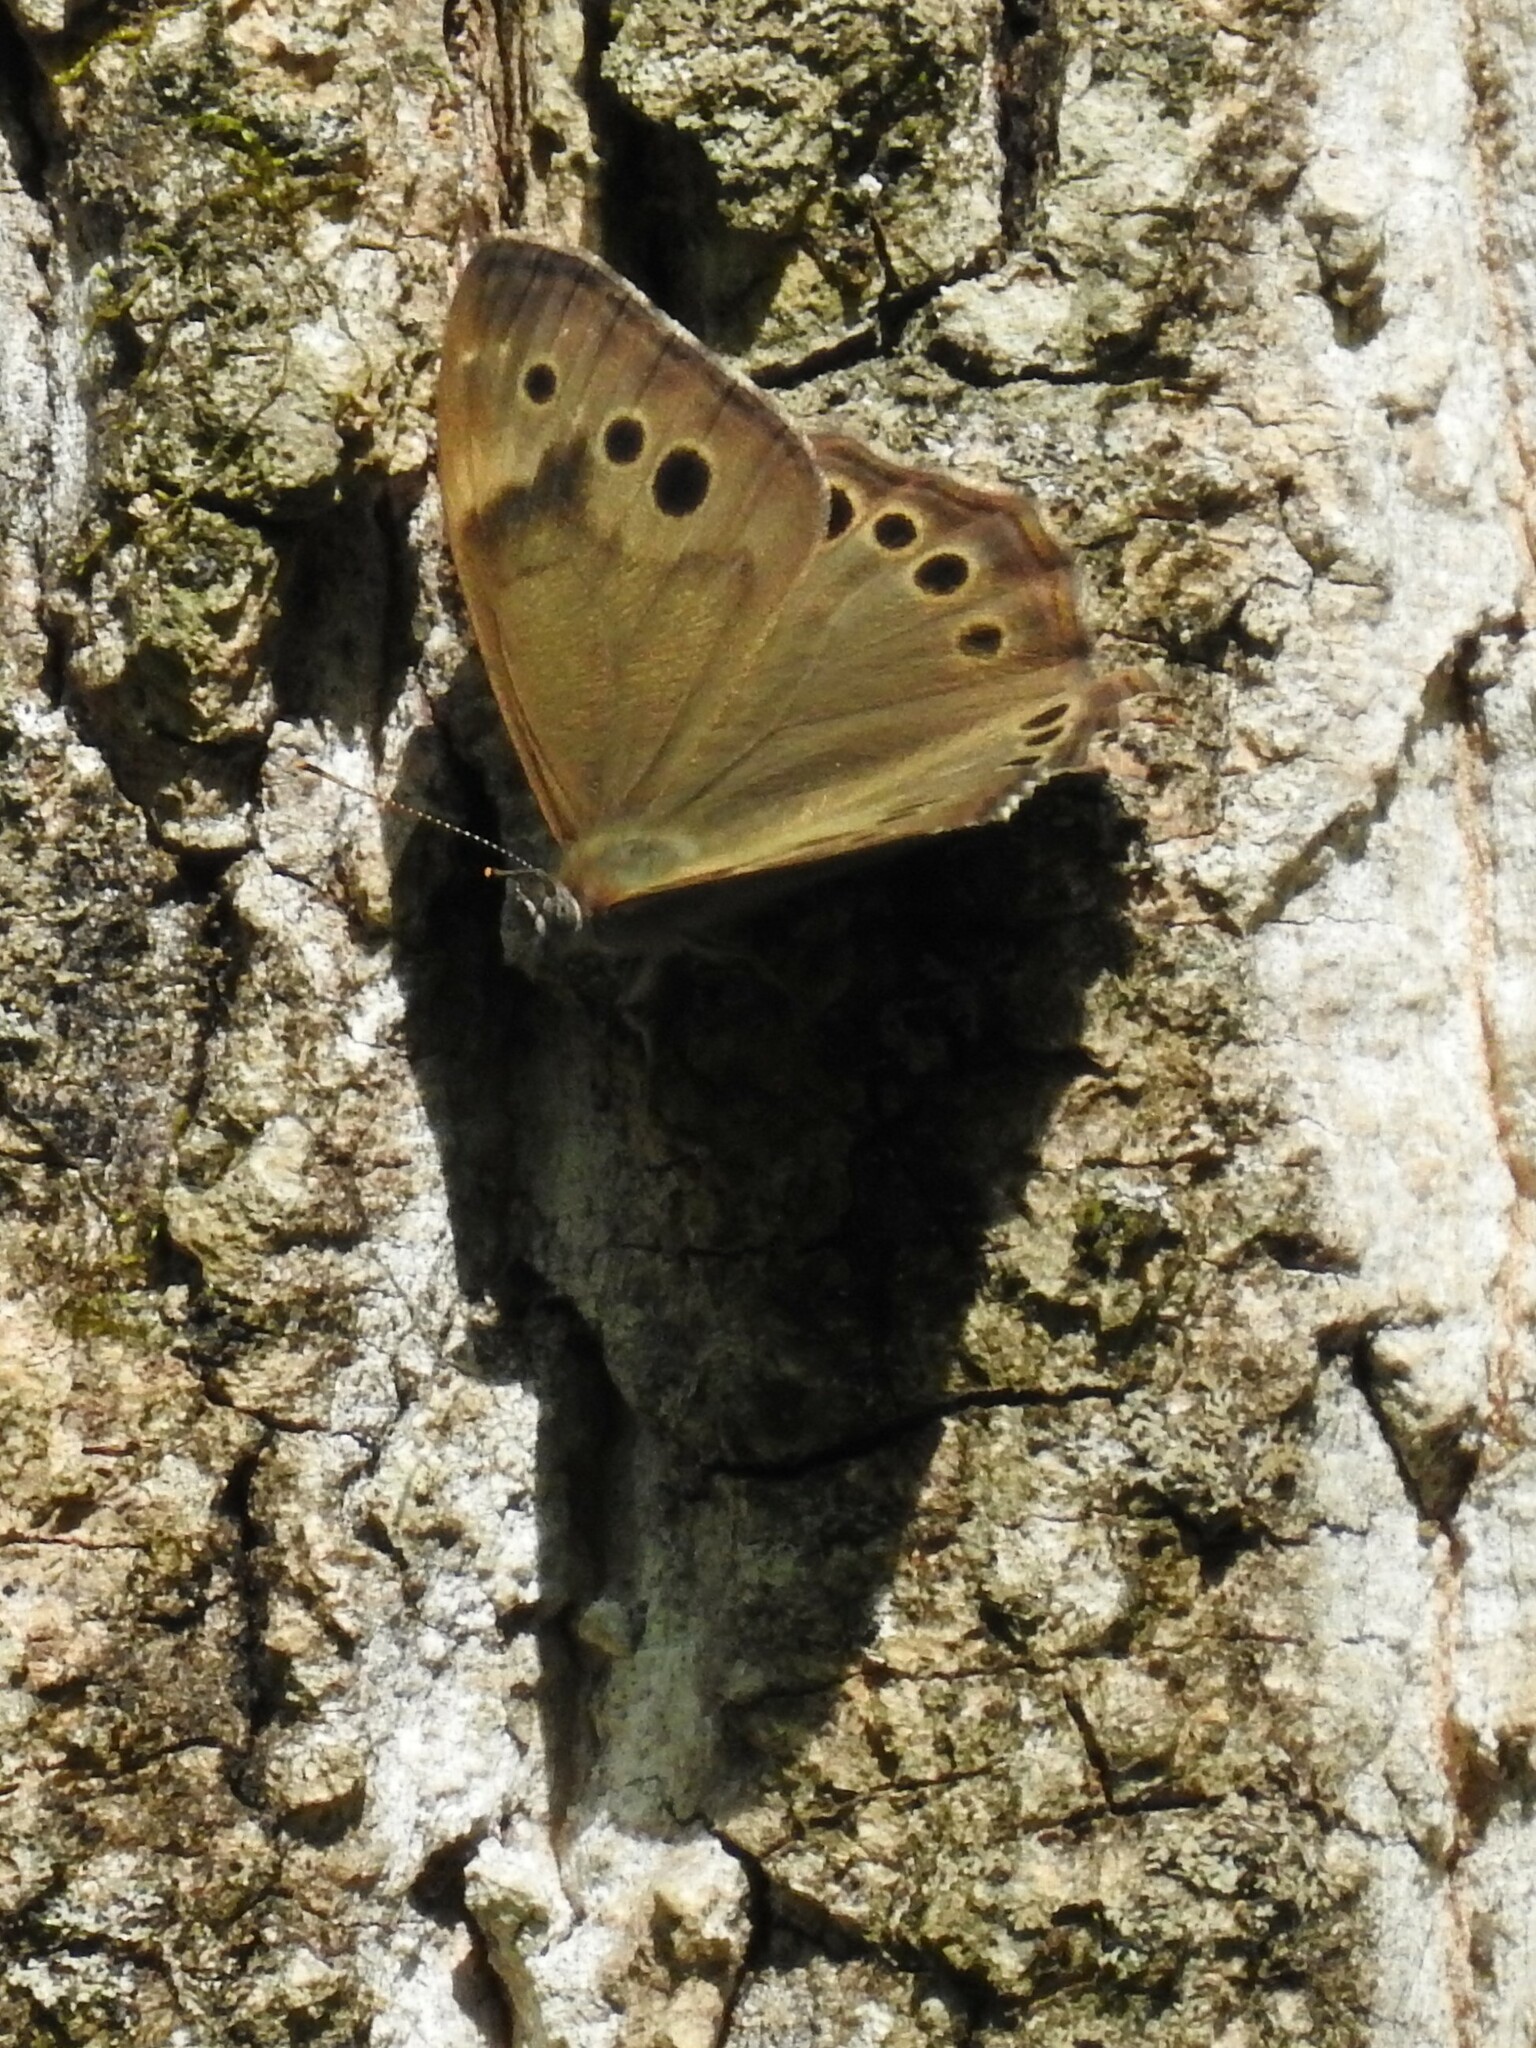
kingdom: Animalia
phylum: Arthropoda
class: Insecta
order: Lepidoptera
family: Nymphalidae
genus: Lethe
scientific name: Lethe anthedon
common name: Northern pearly-eye
